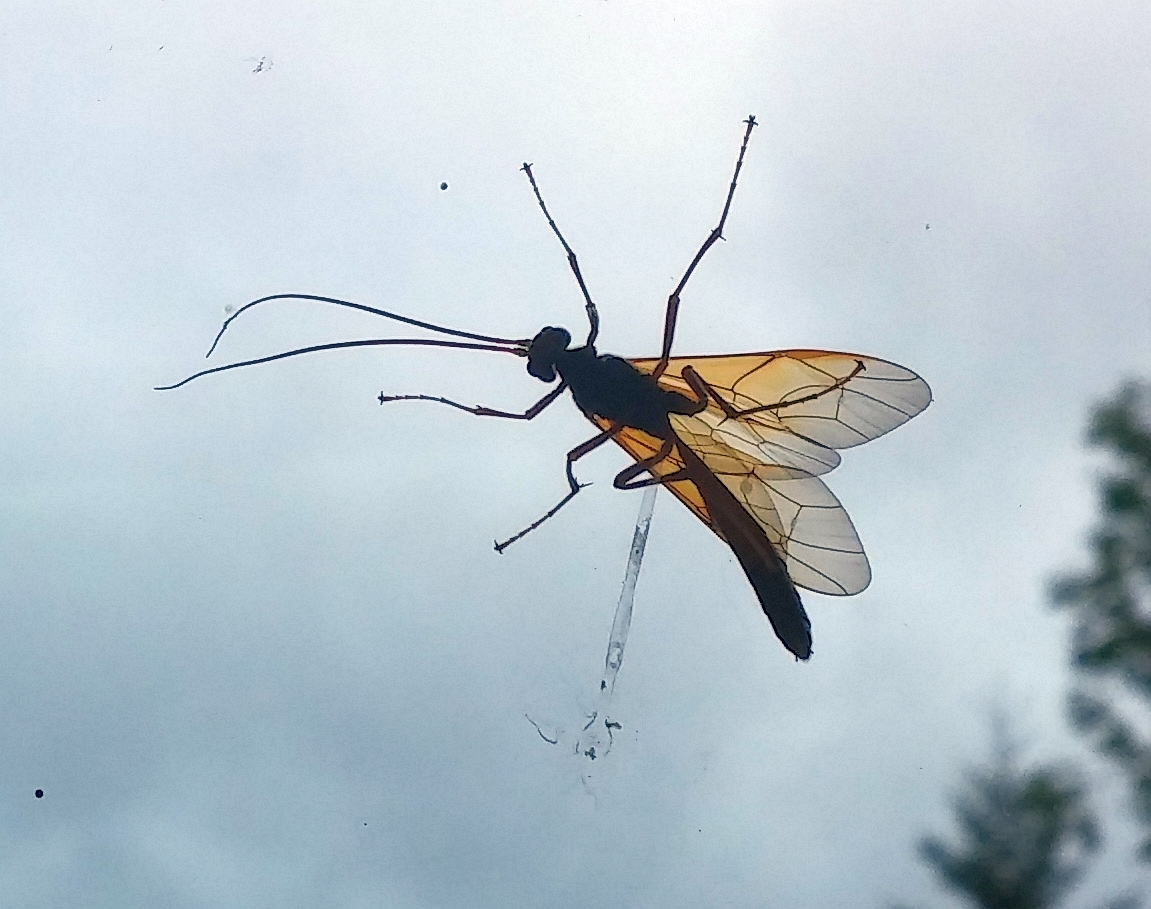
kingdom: Animalia
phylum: Arthropoda
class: Insecta
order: Hymenoptera
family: Ichneumonidae
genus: Opheltes
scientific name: Opheltes glaucopterus
